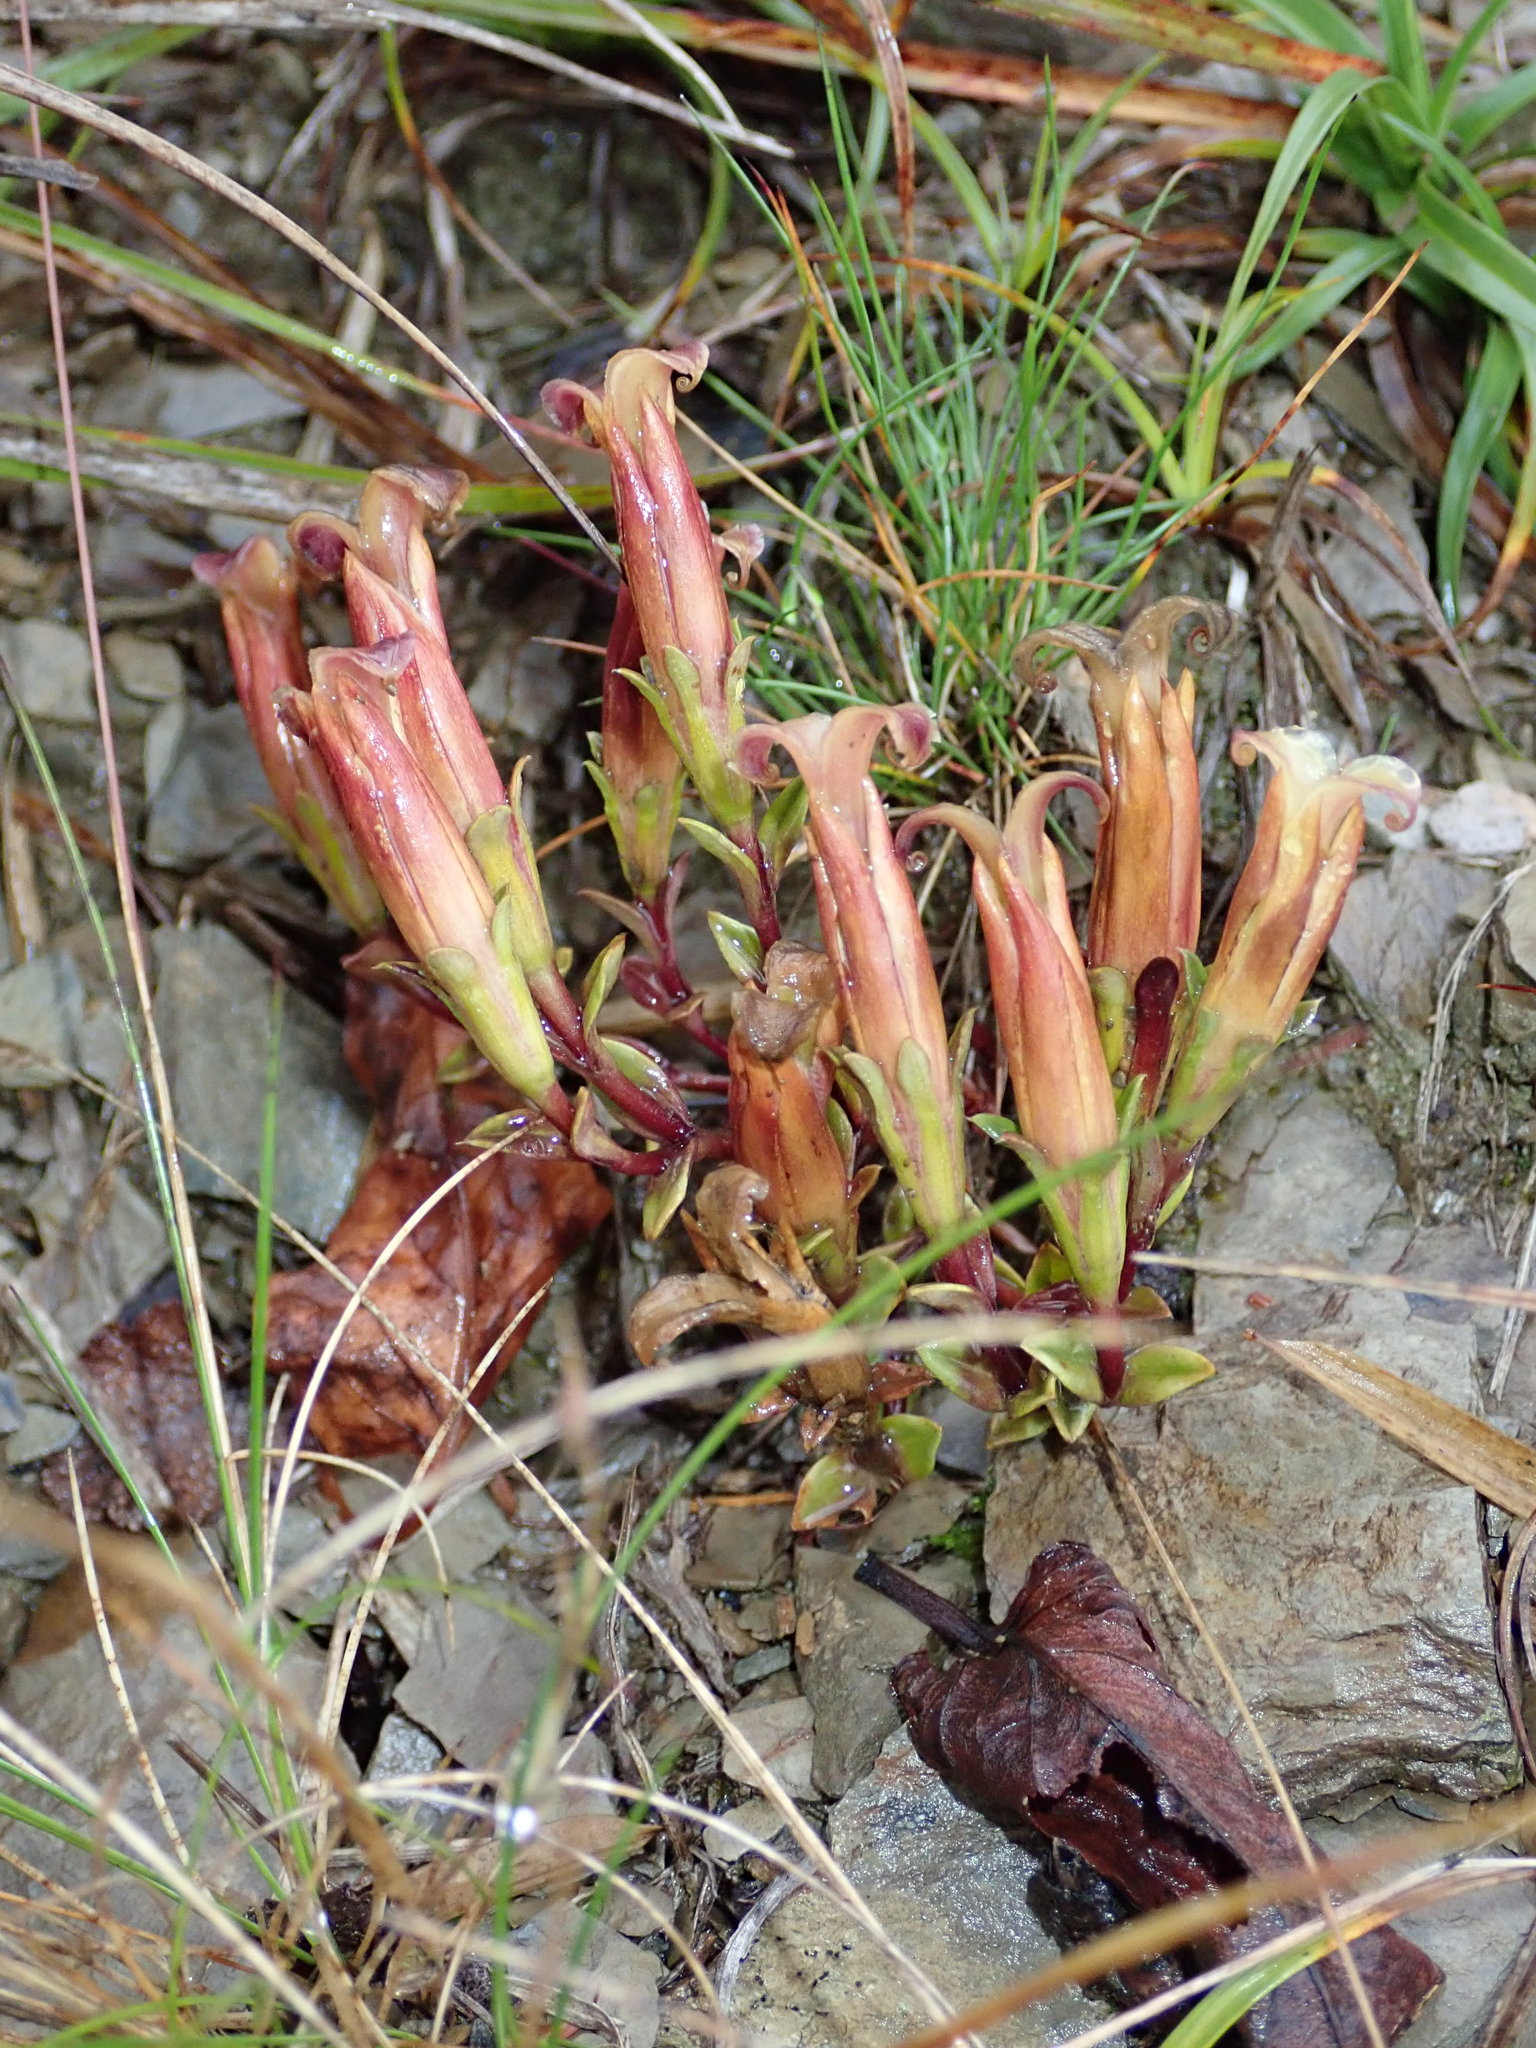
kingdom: Plantae
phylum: Tracheophyta
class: Magnoliopsida
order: Gentianales
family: Gentianaceae
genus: Gentiana
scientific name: Gentiana scabrida
